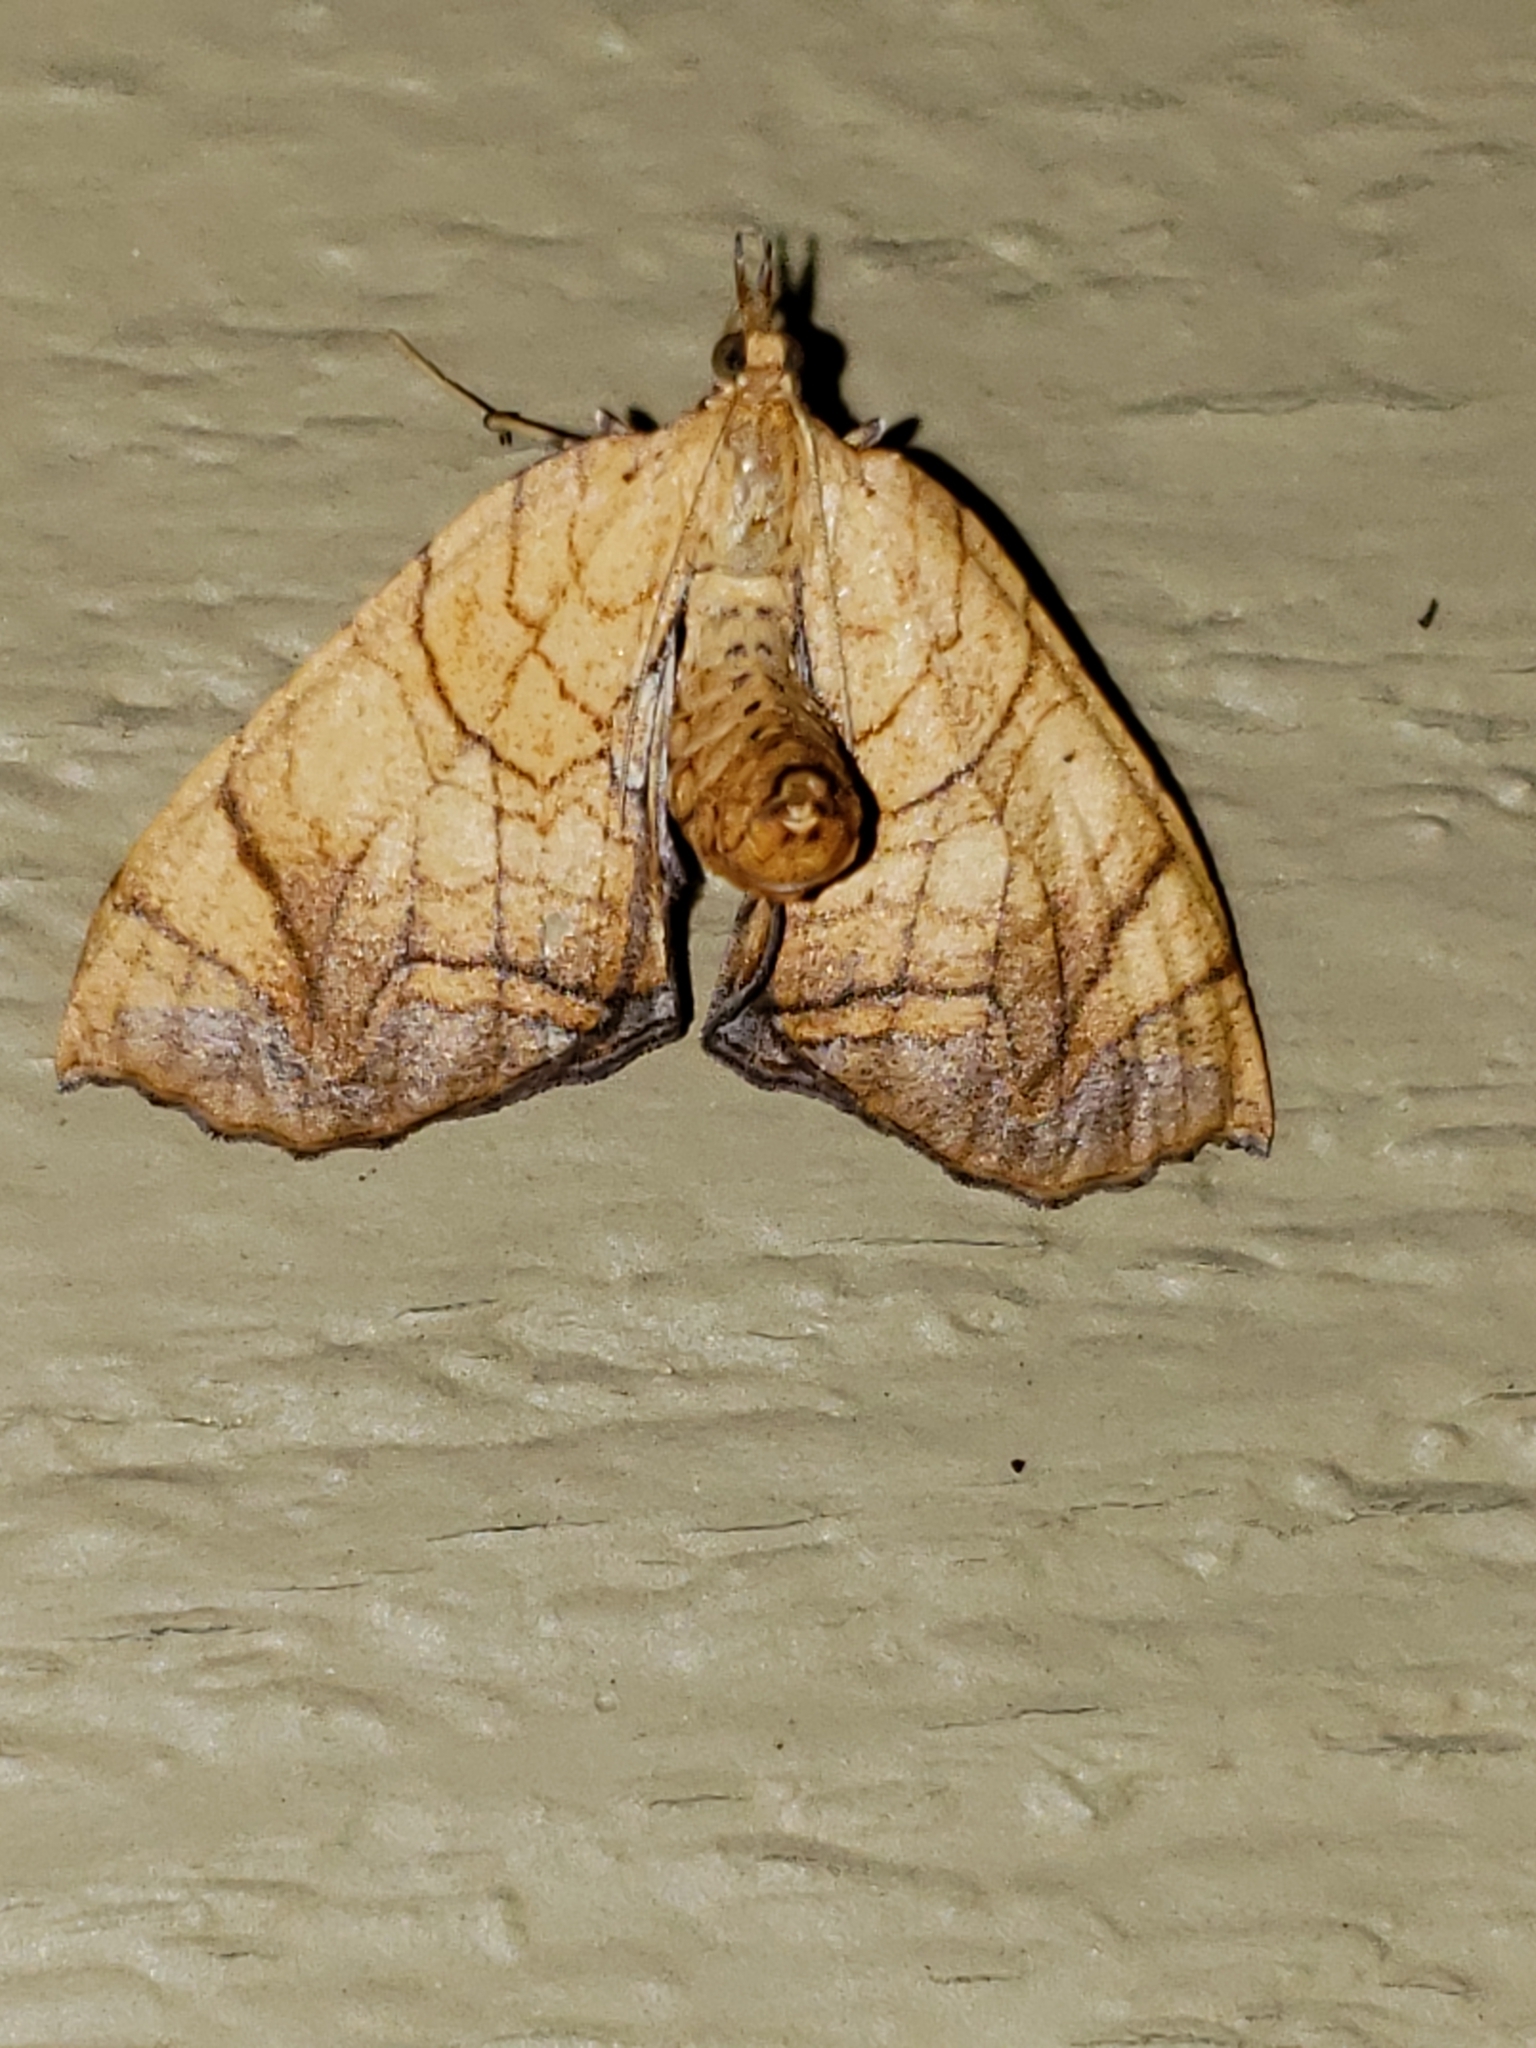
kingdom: Animalia
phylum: Arthropoda
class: Insecta
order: Lepidoptera
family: Geometridae
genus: Eulithis
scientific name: Eulithis gracilineata
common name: Greater grapevine looper moth
